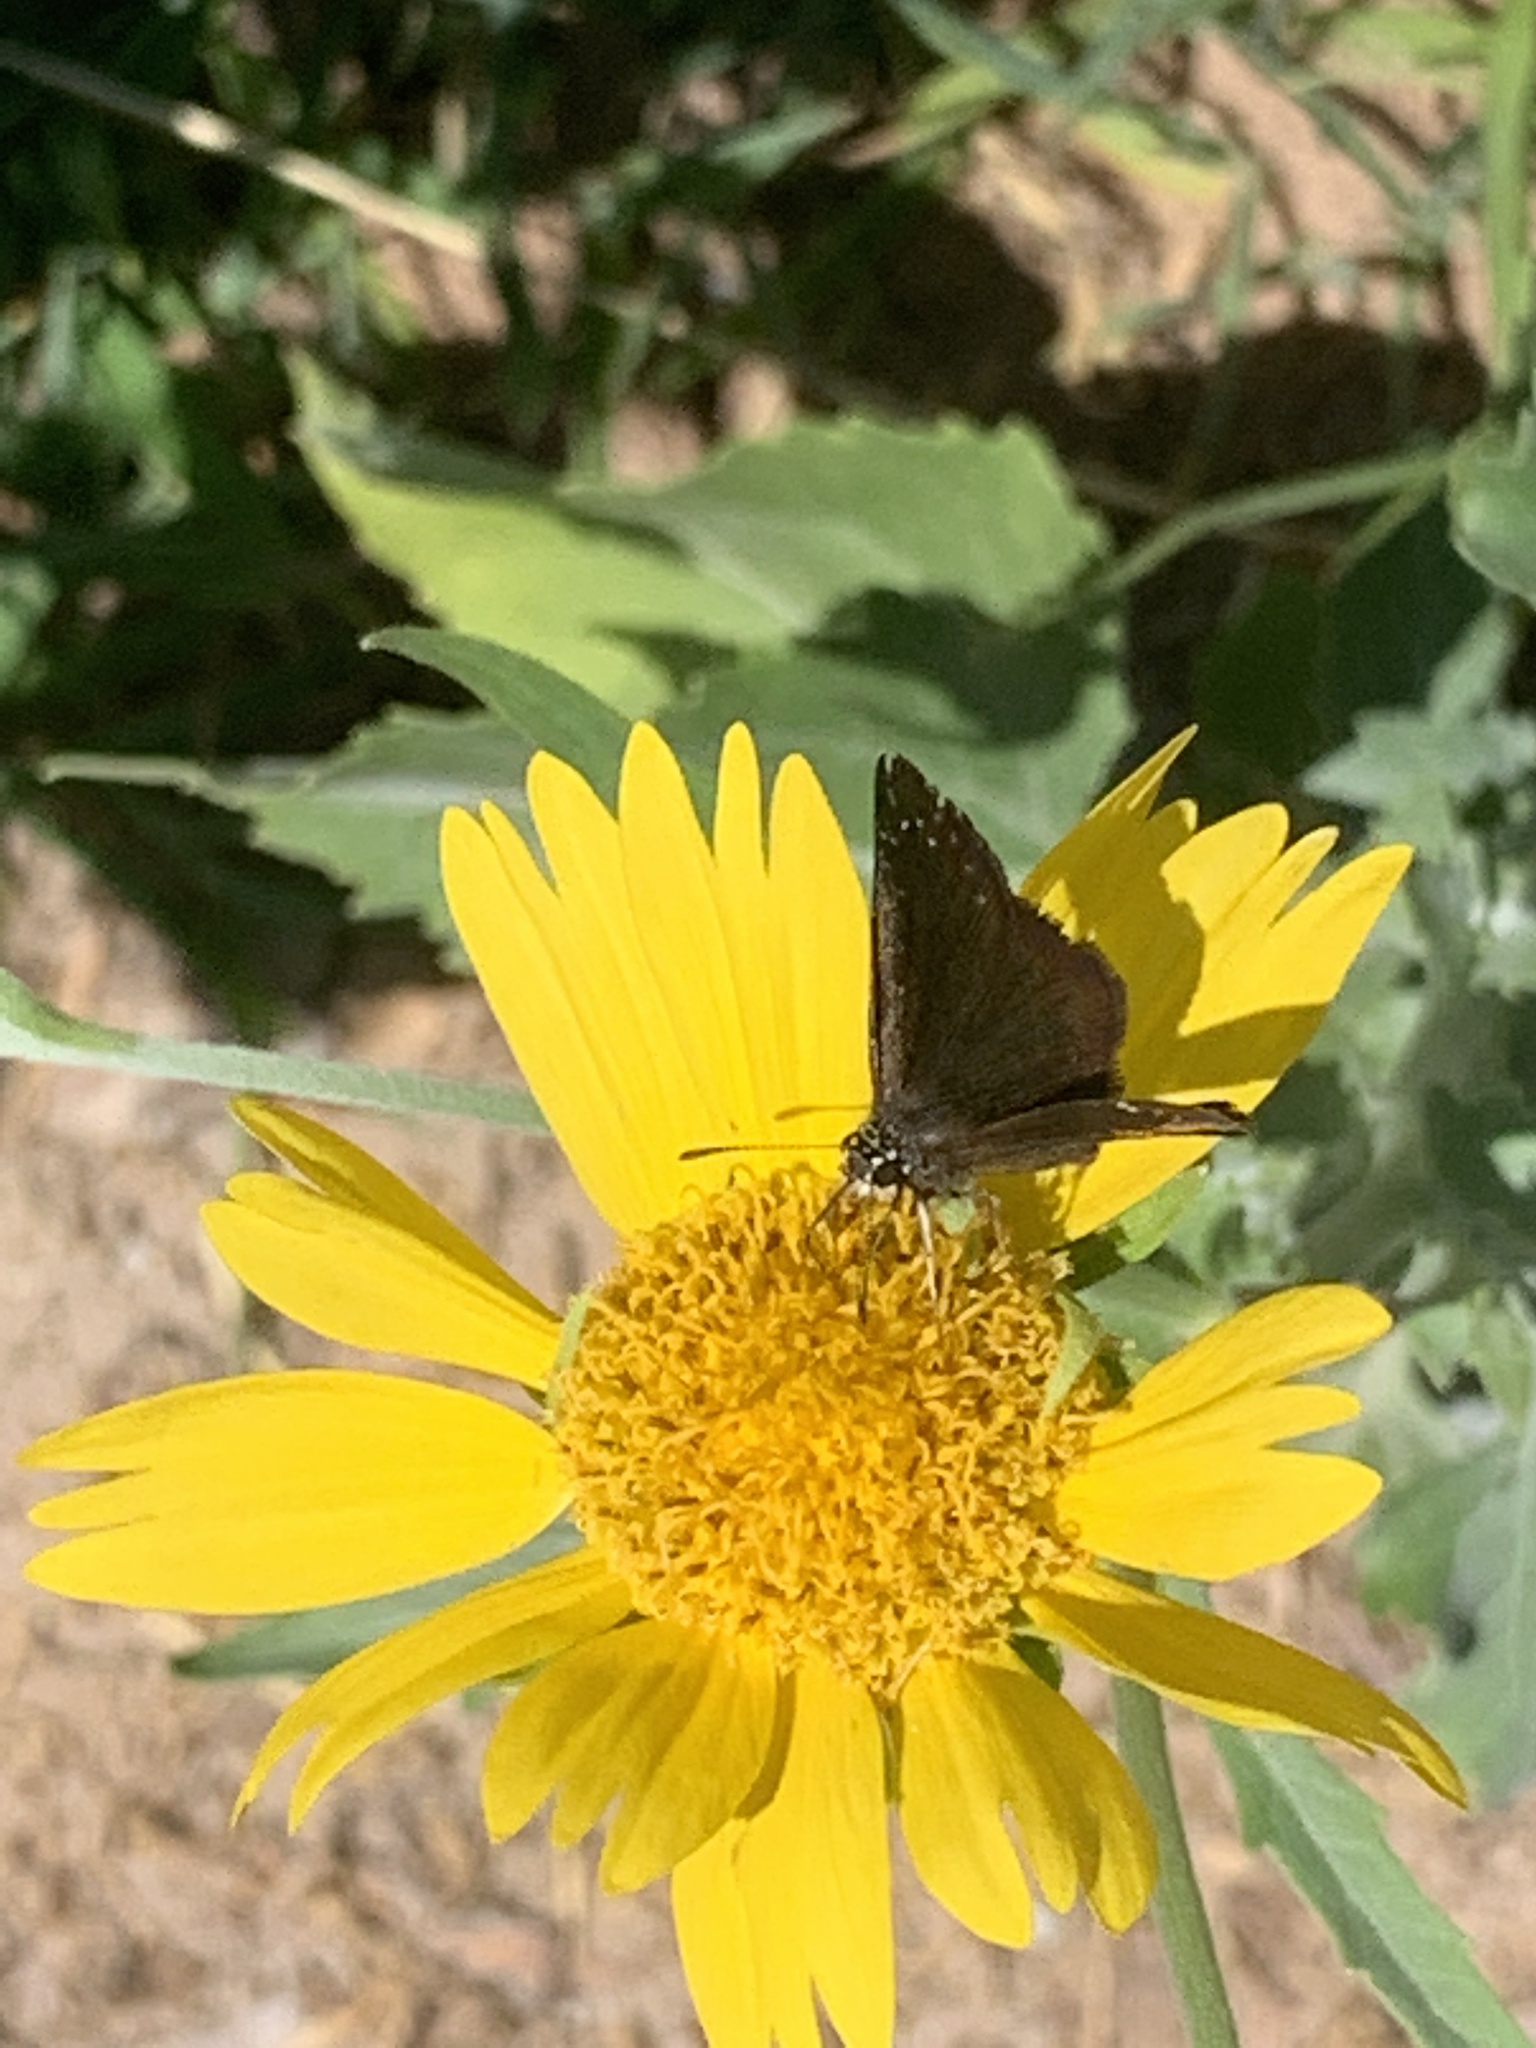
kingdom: Animalia
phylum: Arthropoda
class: Insecta
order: Lepidoptera
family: Hesperiidae
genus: Pholisora
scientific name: Pholisora catullus
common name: Common sootywing
